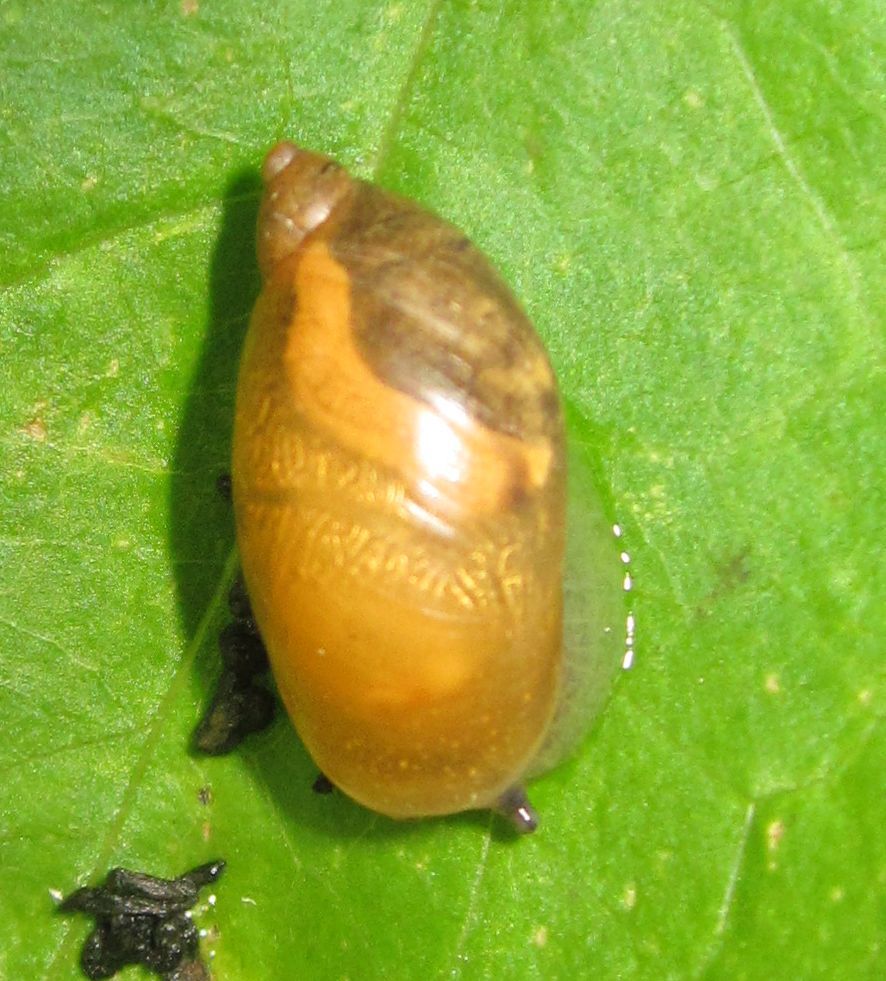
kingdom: Animalia
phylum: Mollusca
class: Gastropoda
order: Stylommatophora
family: Succineidae
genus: Succinea
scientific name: Succinea putris
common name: European ambersnail
